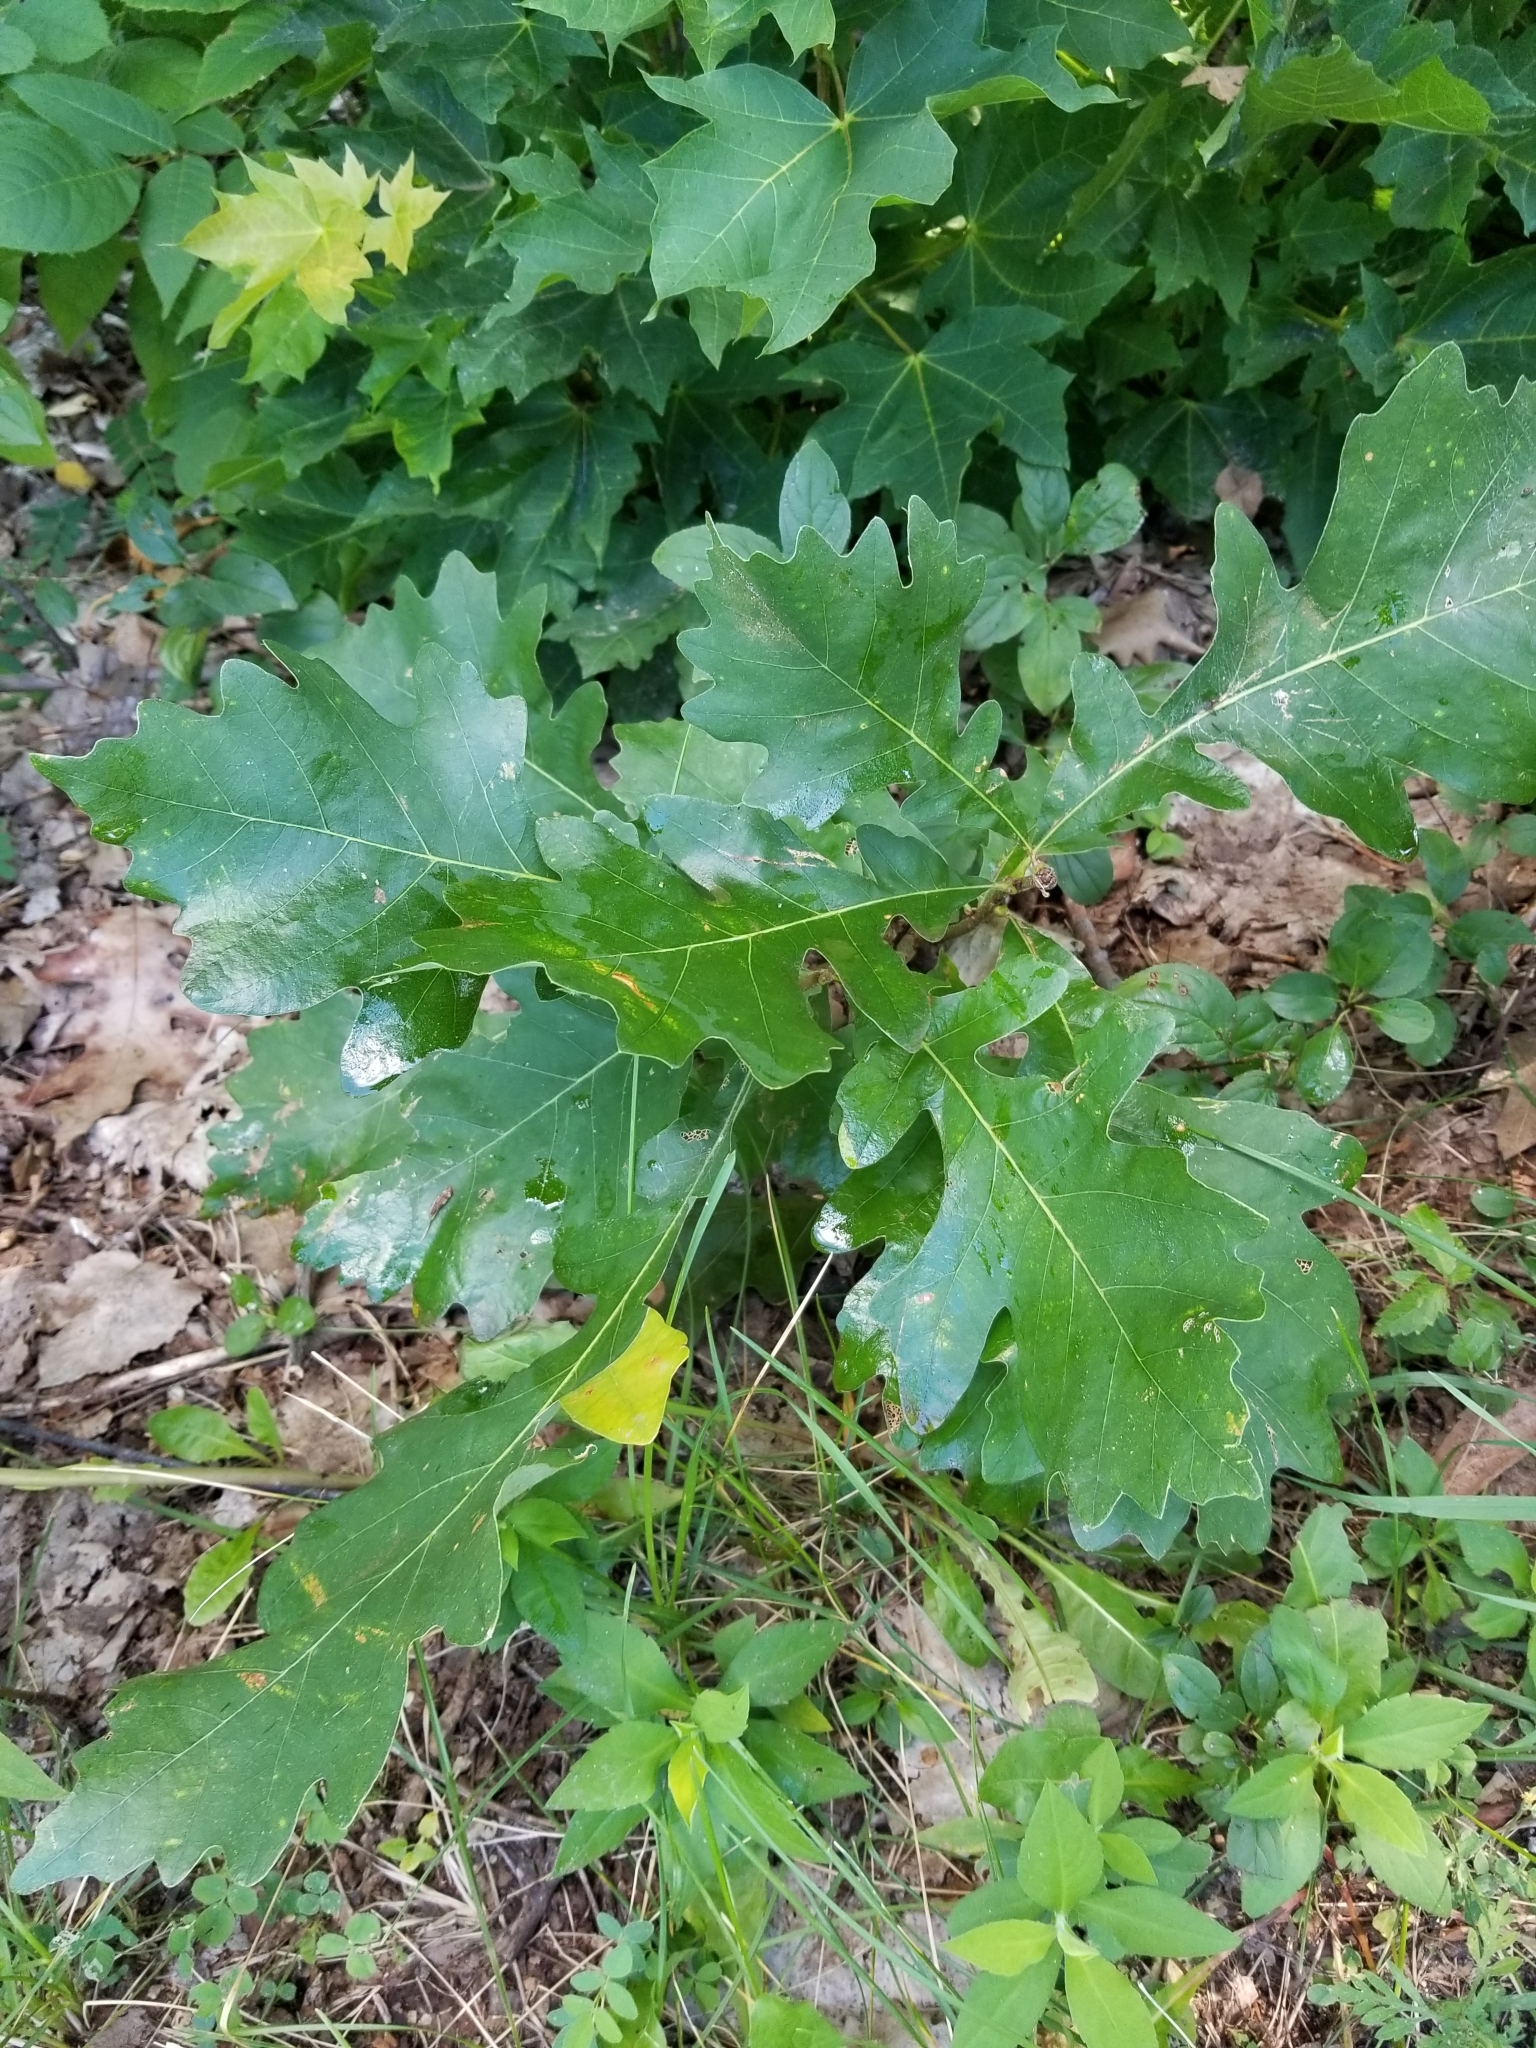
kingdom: Plantae
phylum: Tracheophyta
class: Magnoliopsida
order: Fagales
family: Fagaceae
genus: Quercus
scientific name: Quercus macrocarpa
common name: Bur oak
